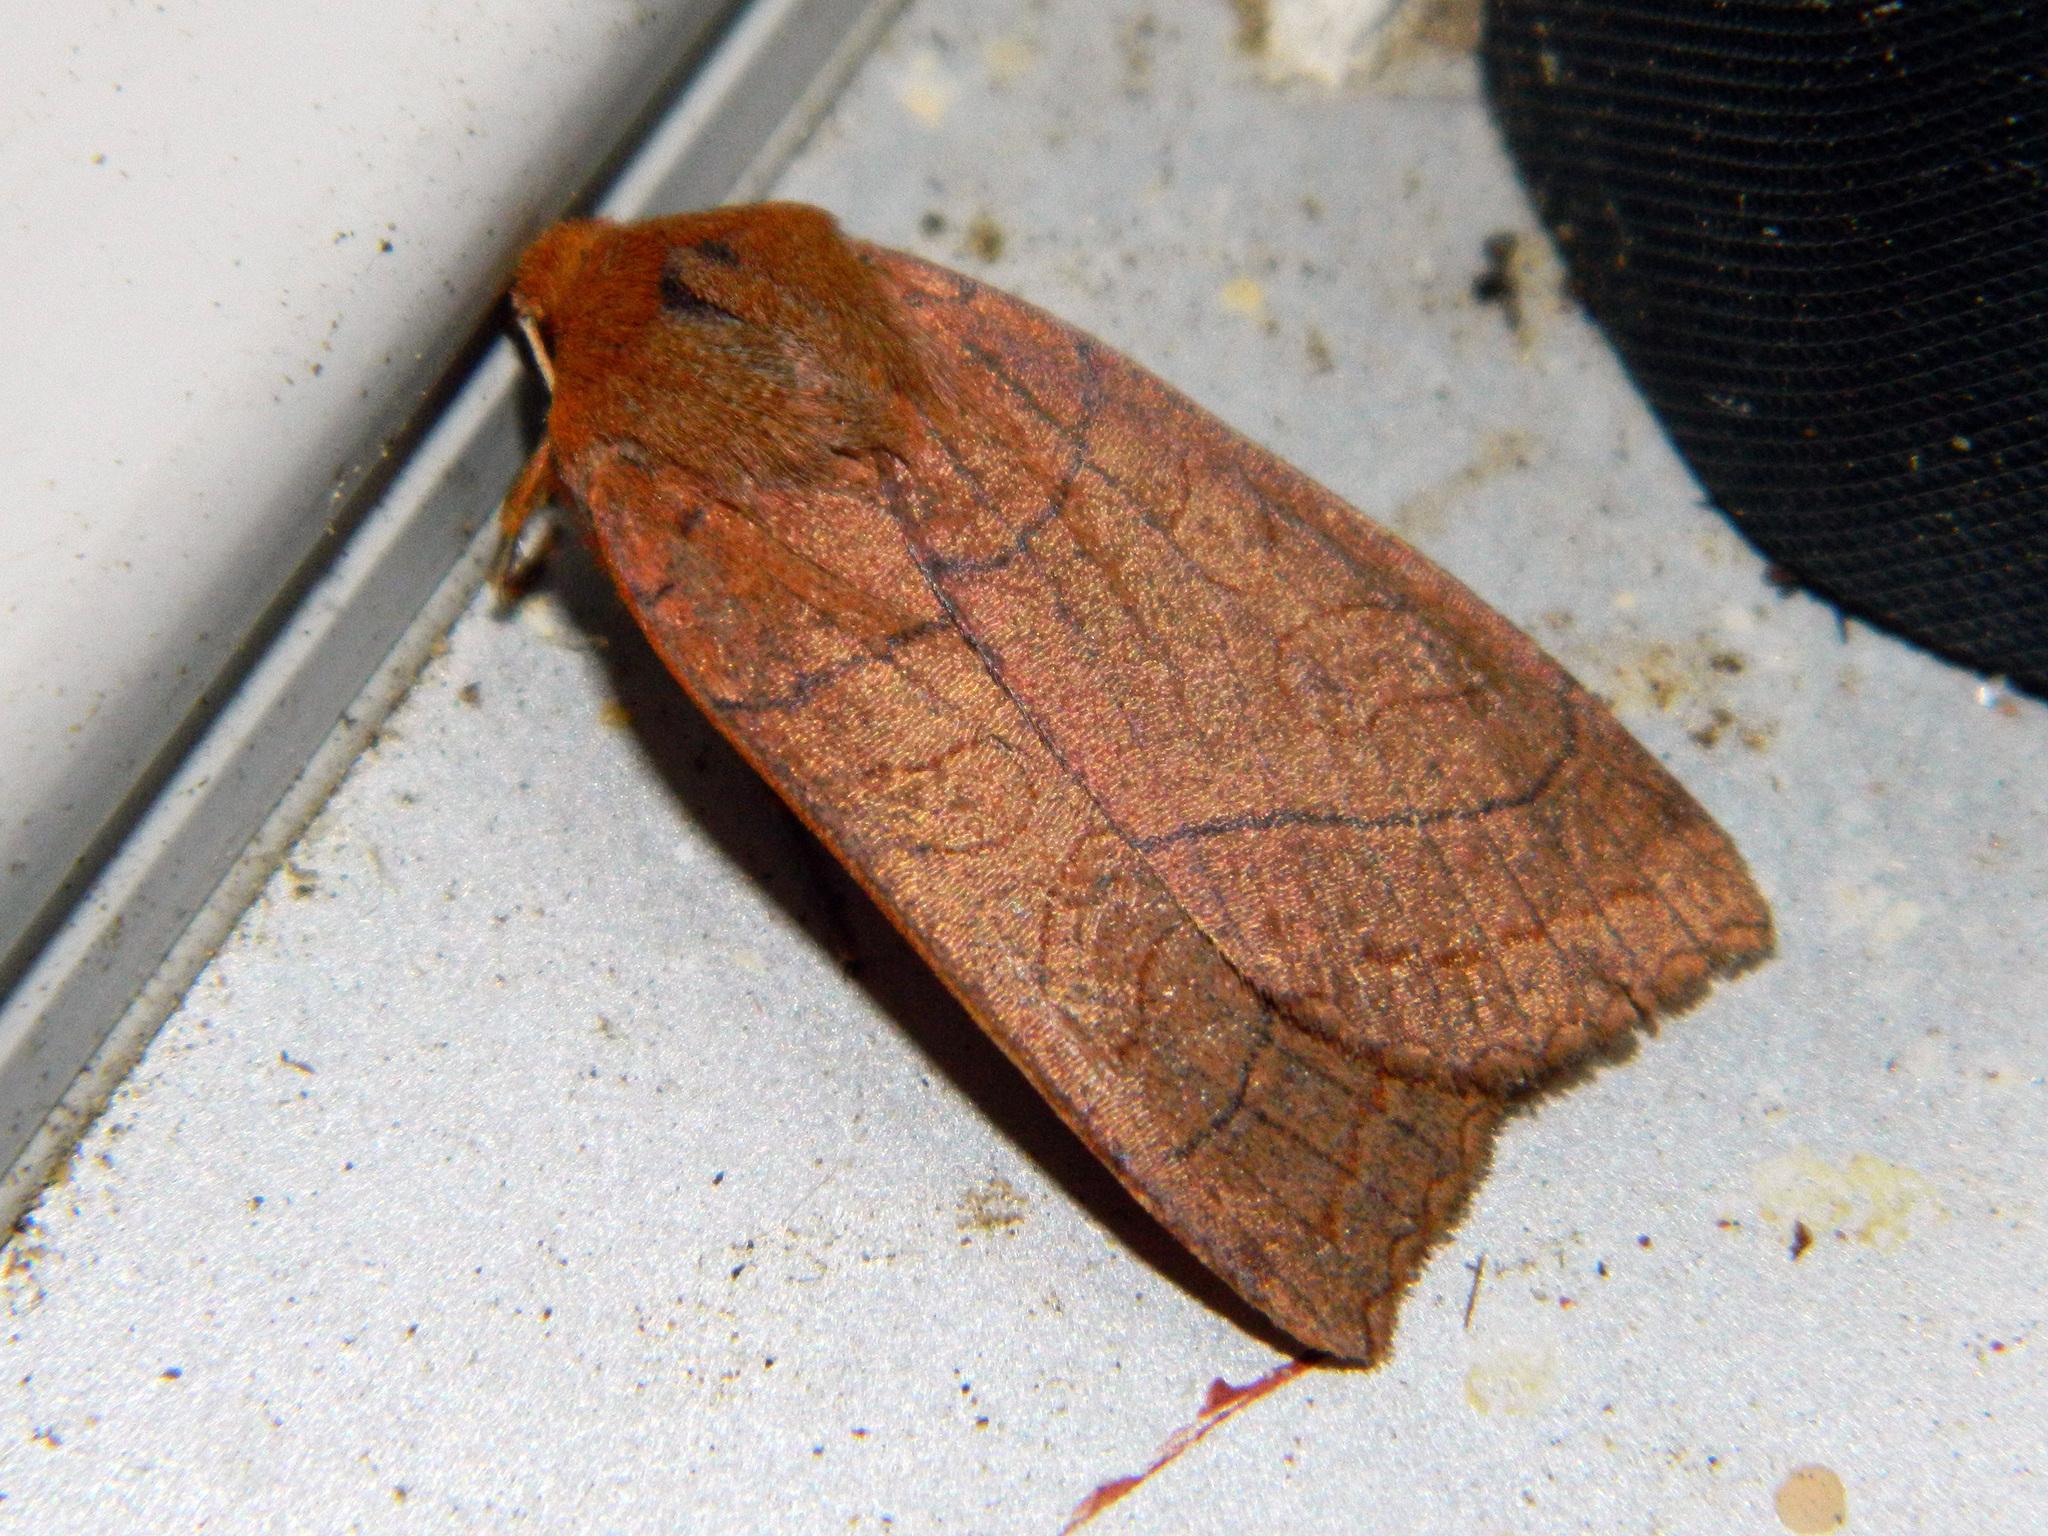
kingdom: Animalia
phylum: Arthropoda
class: Insecta
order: Lepidoptera
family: Noctuidae
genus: Metaxaglaea
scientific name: Metaxaglaea inulta
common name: Unsated sallow
